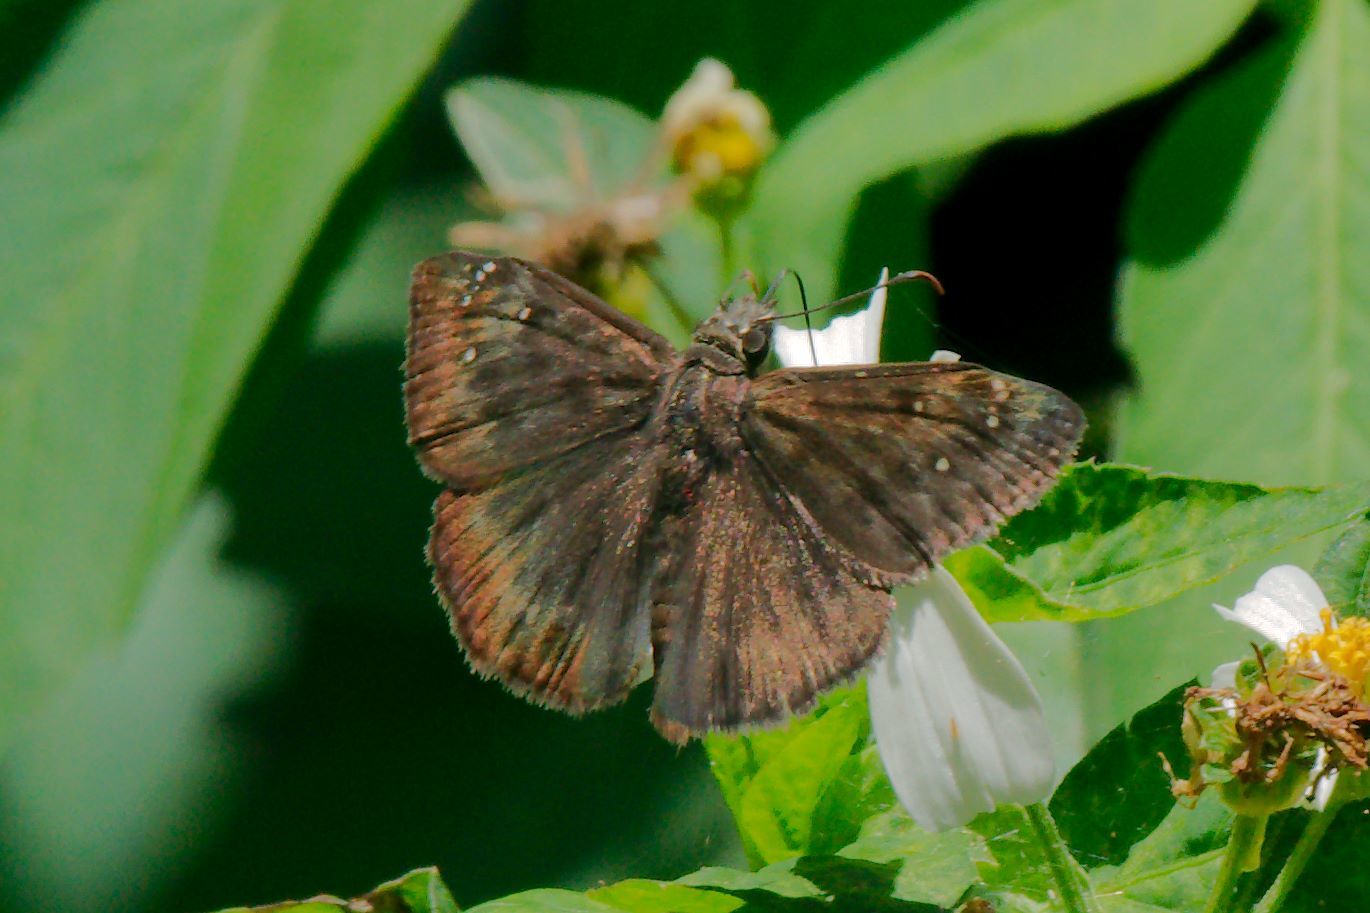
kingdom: Animalia
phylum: Arthropoda
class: Insecta
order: Lepidoptera
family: Hesperiidae
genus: Erynnis
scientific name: Erynnis horatius
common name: Horace's duskywing
